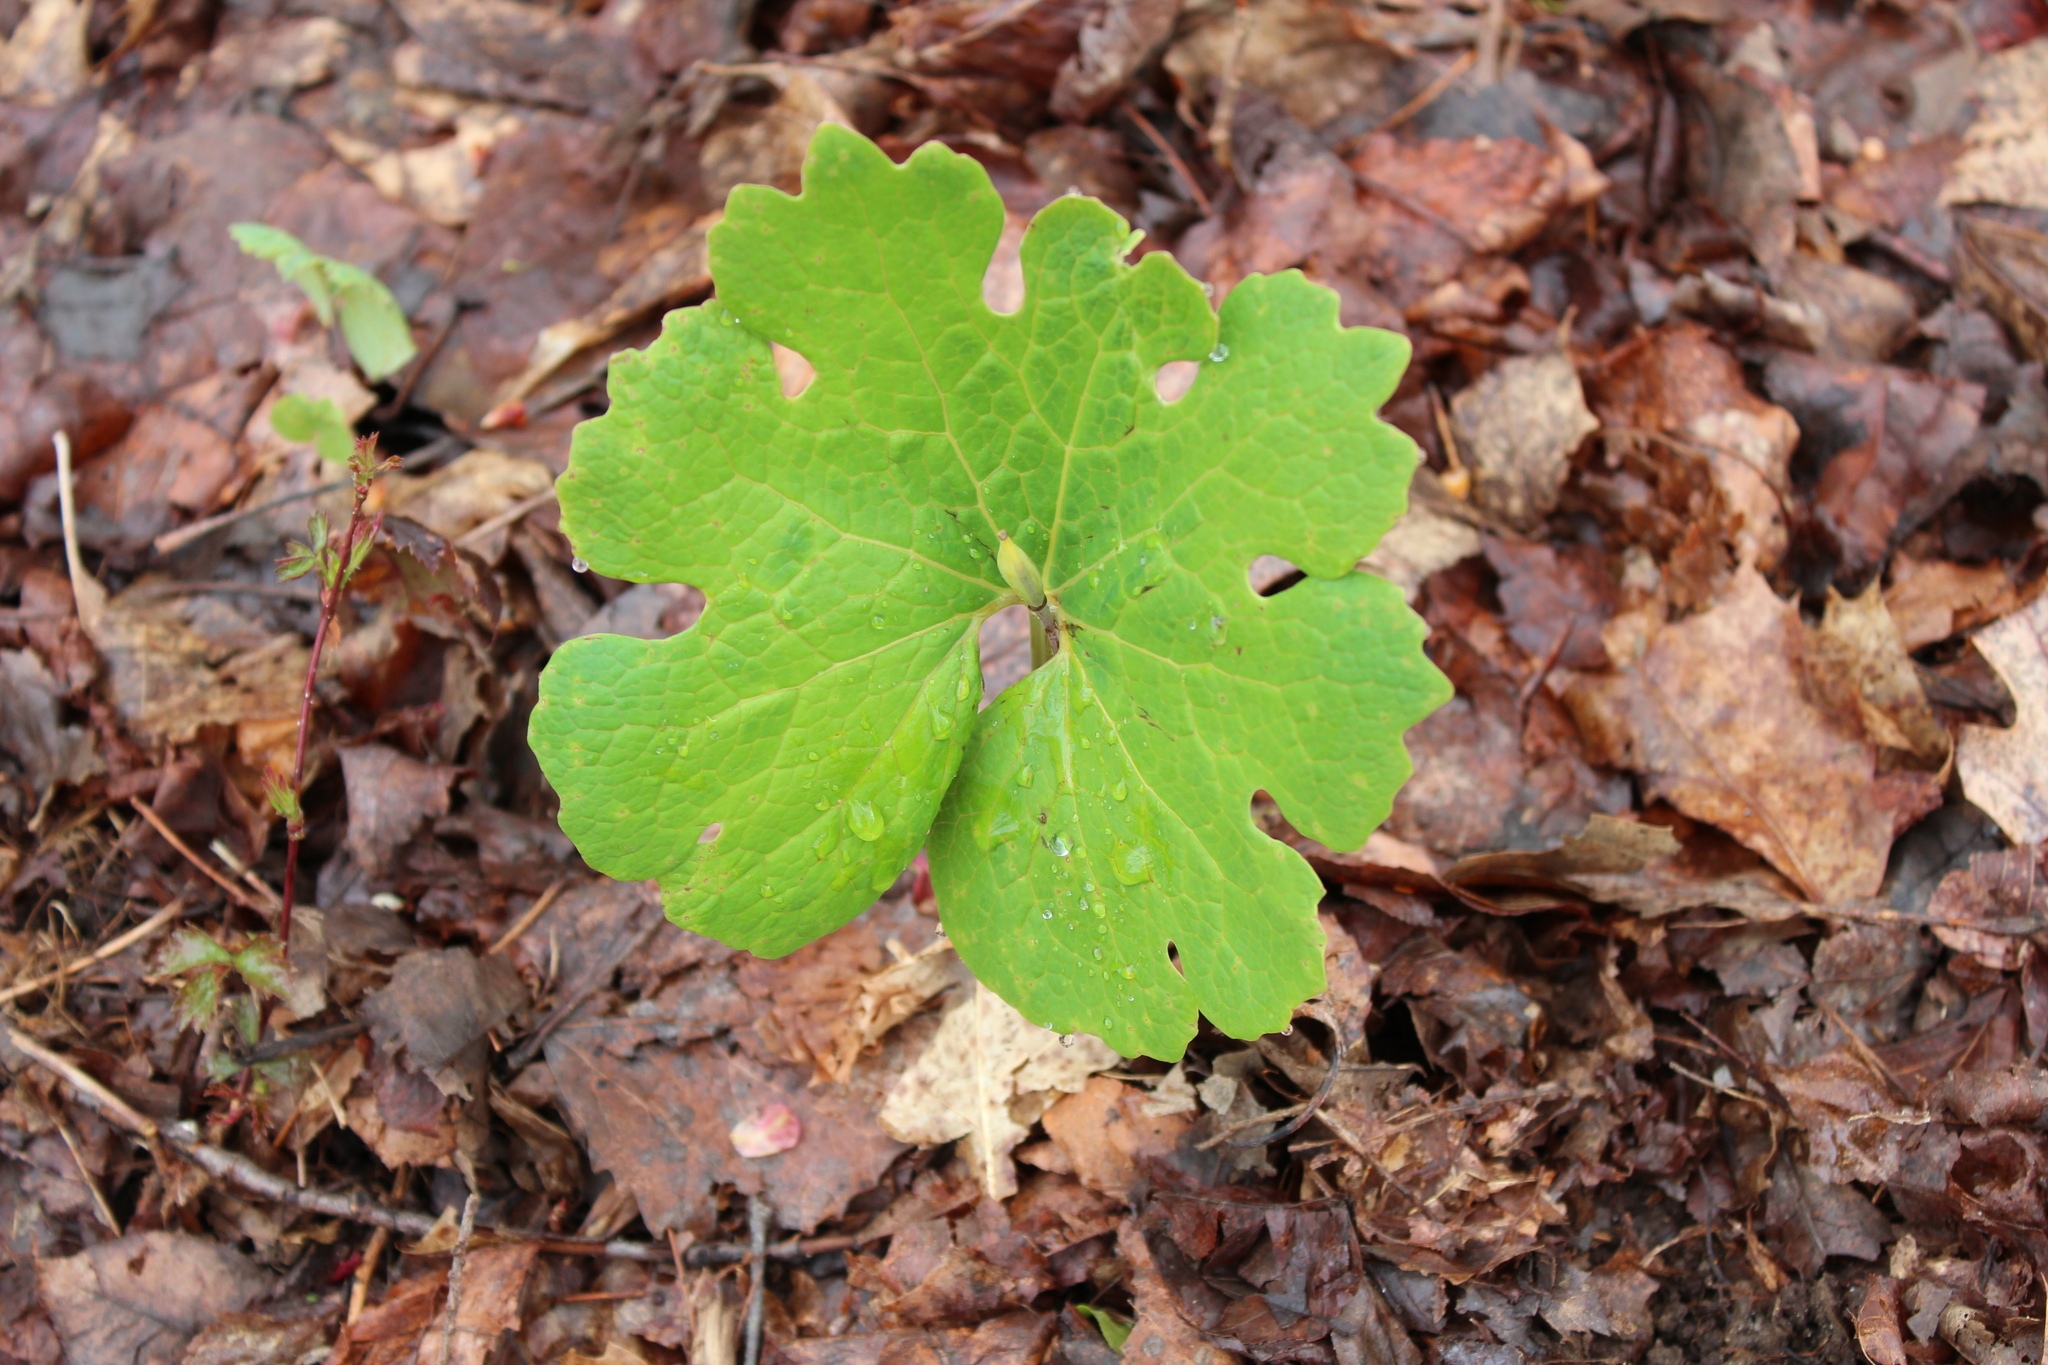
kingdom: Plantae
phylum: Tracheophyta
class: Magnoliopsida
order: Ranunculales
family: Papaveraceae
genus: Sanguinaria
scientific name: Sanguinaria canadensis
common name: Bloodroot
